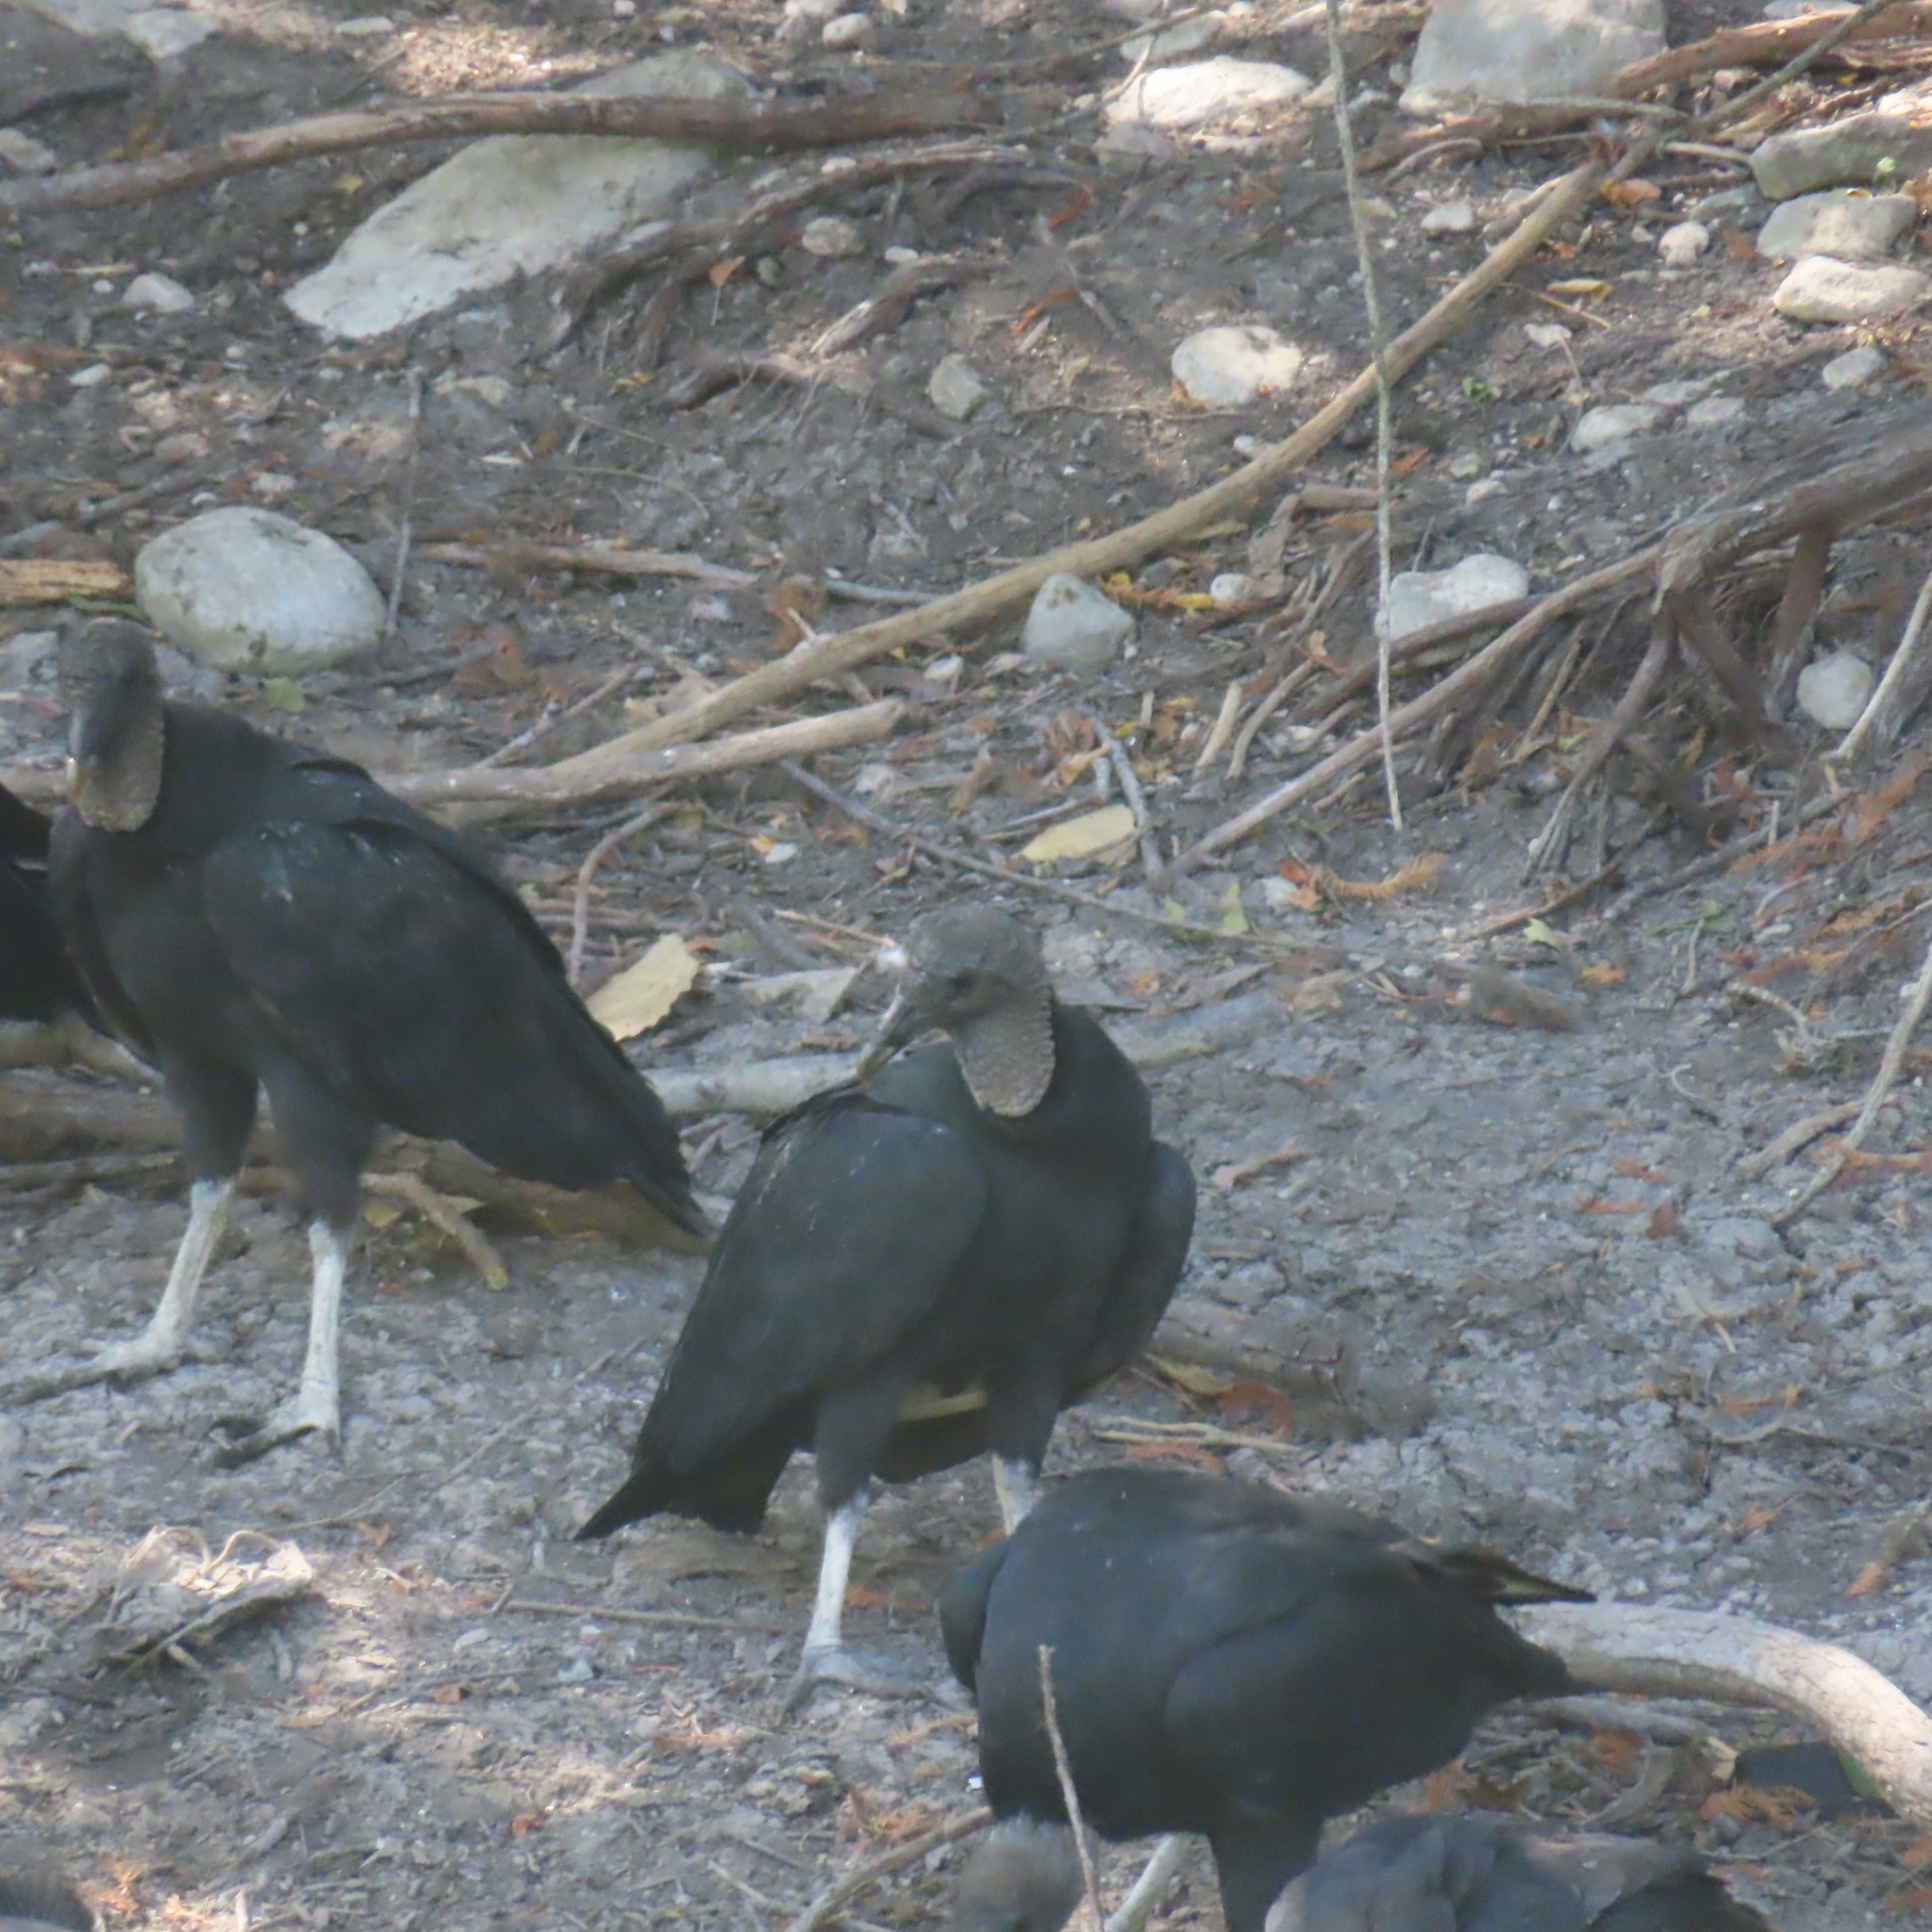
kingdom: Animalia
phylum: Chordata
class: Aves
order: Accipitriformes
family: Cathartidae
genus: Coragyps
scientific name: Coragyps atratus
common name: Black vulture
